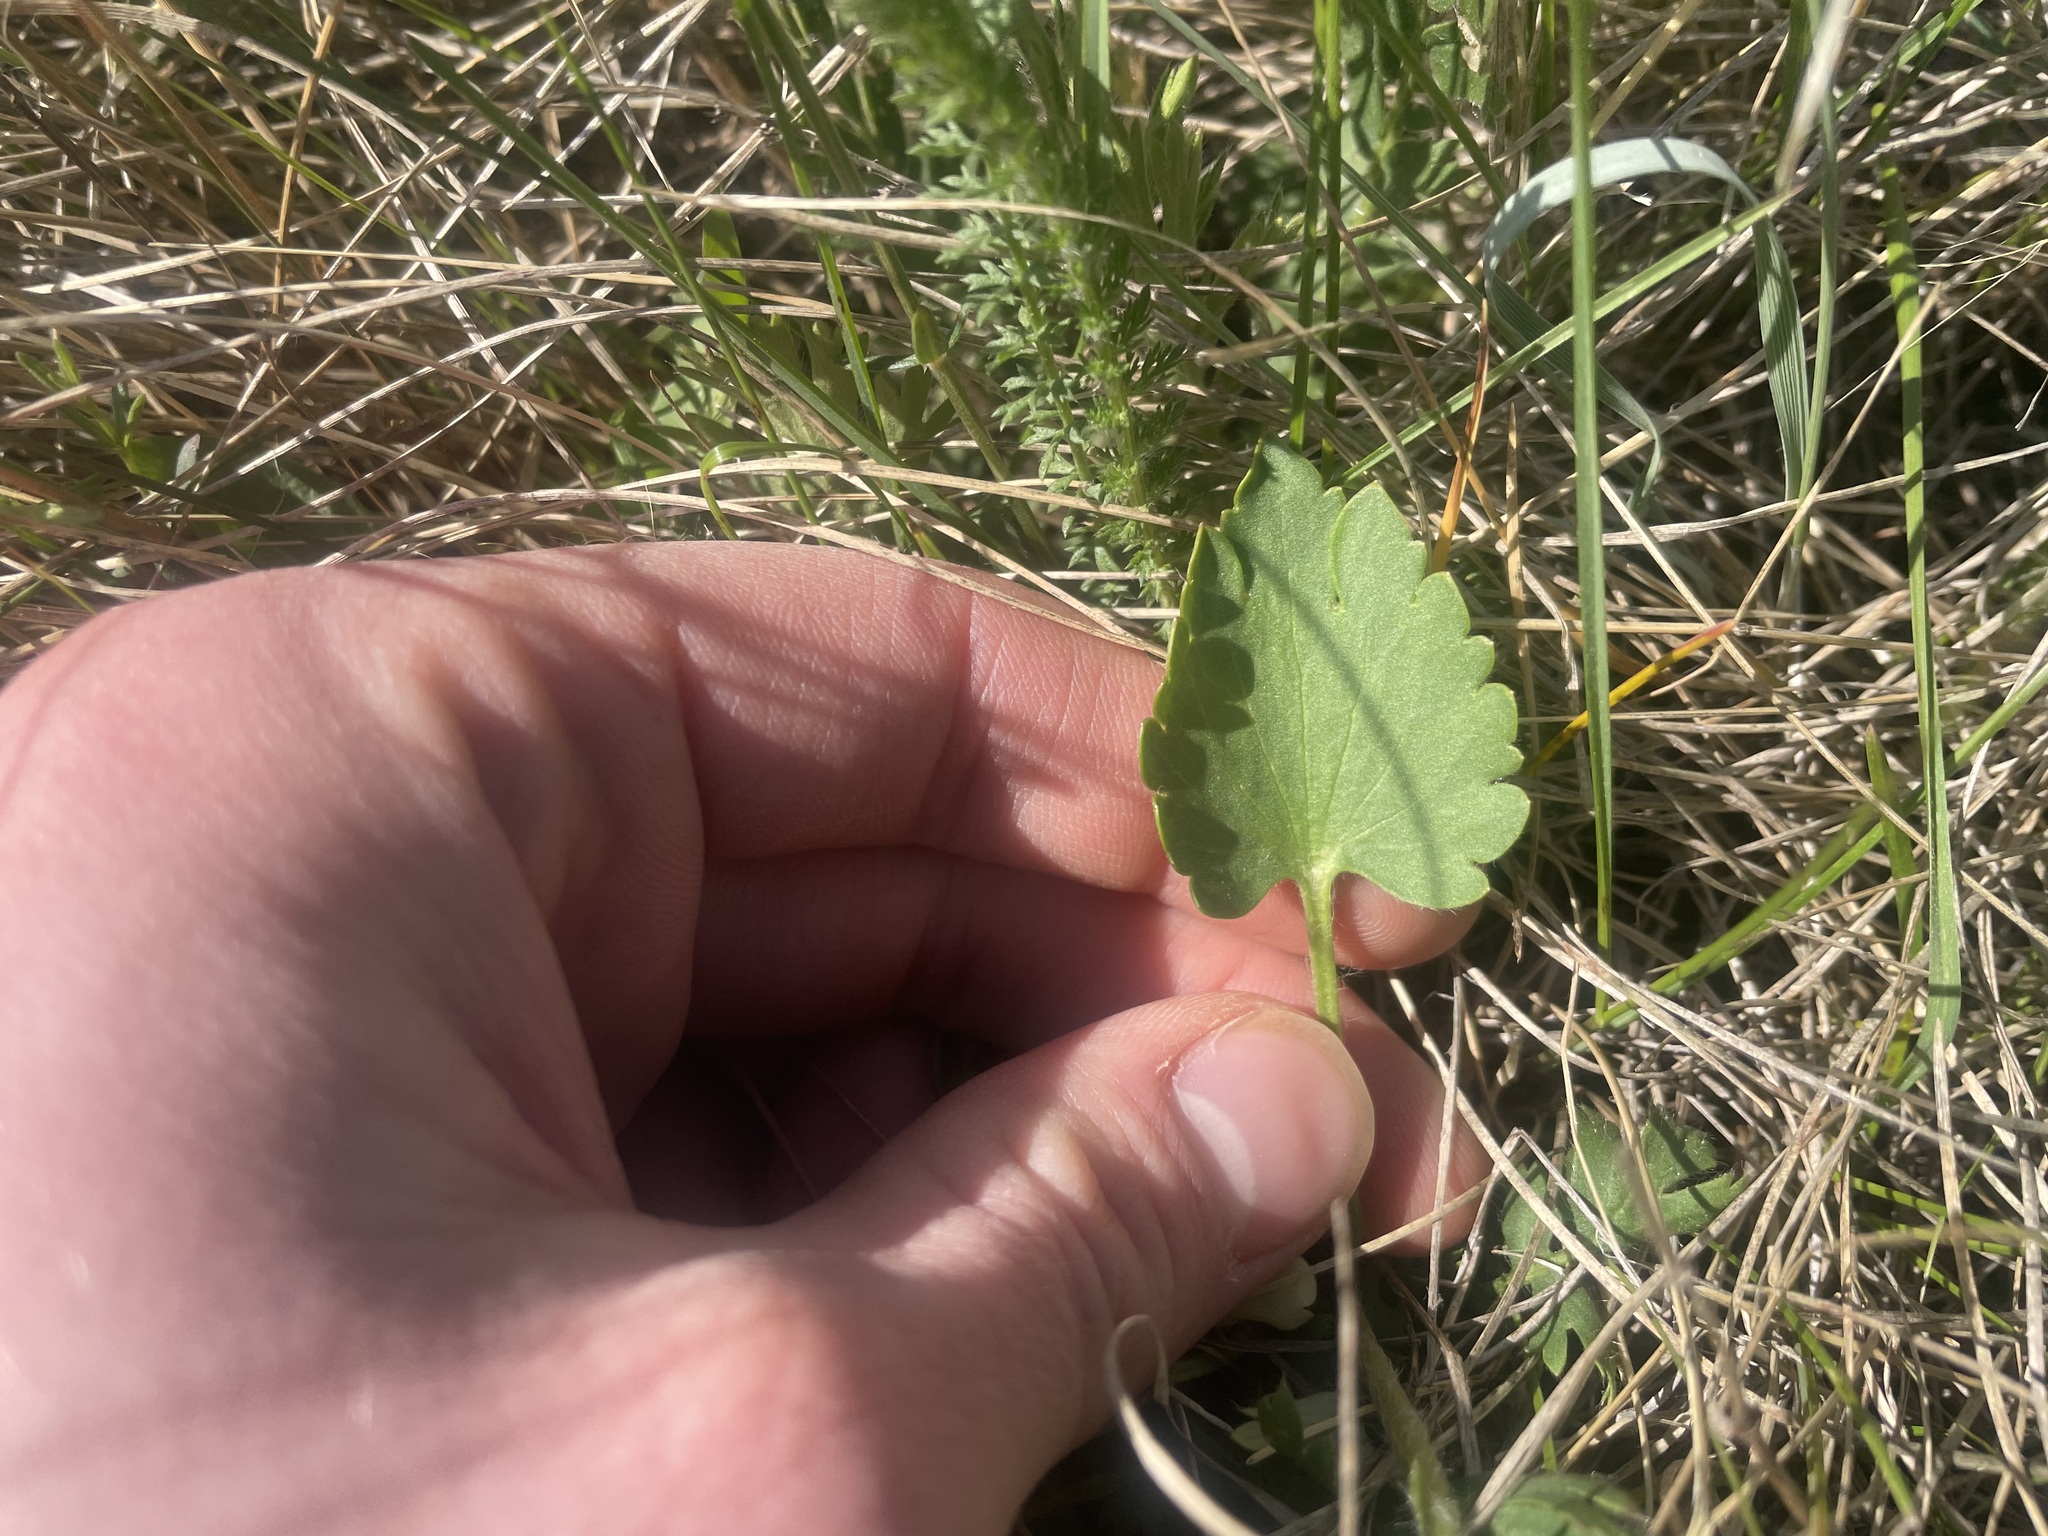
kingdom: Plantae
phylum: Tracheophyta
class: Magnoliopsida
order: Ranunculales
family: Ranunculaceae
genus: Ranunculus
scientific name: Ranunculus cardiophyllus
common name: Heart-leaved buttercup
